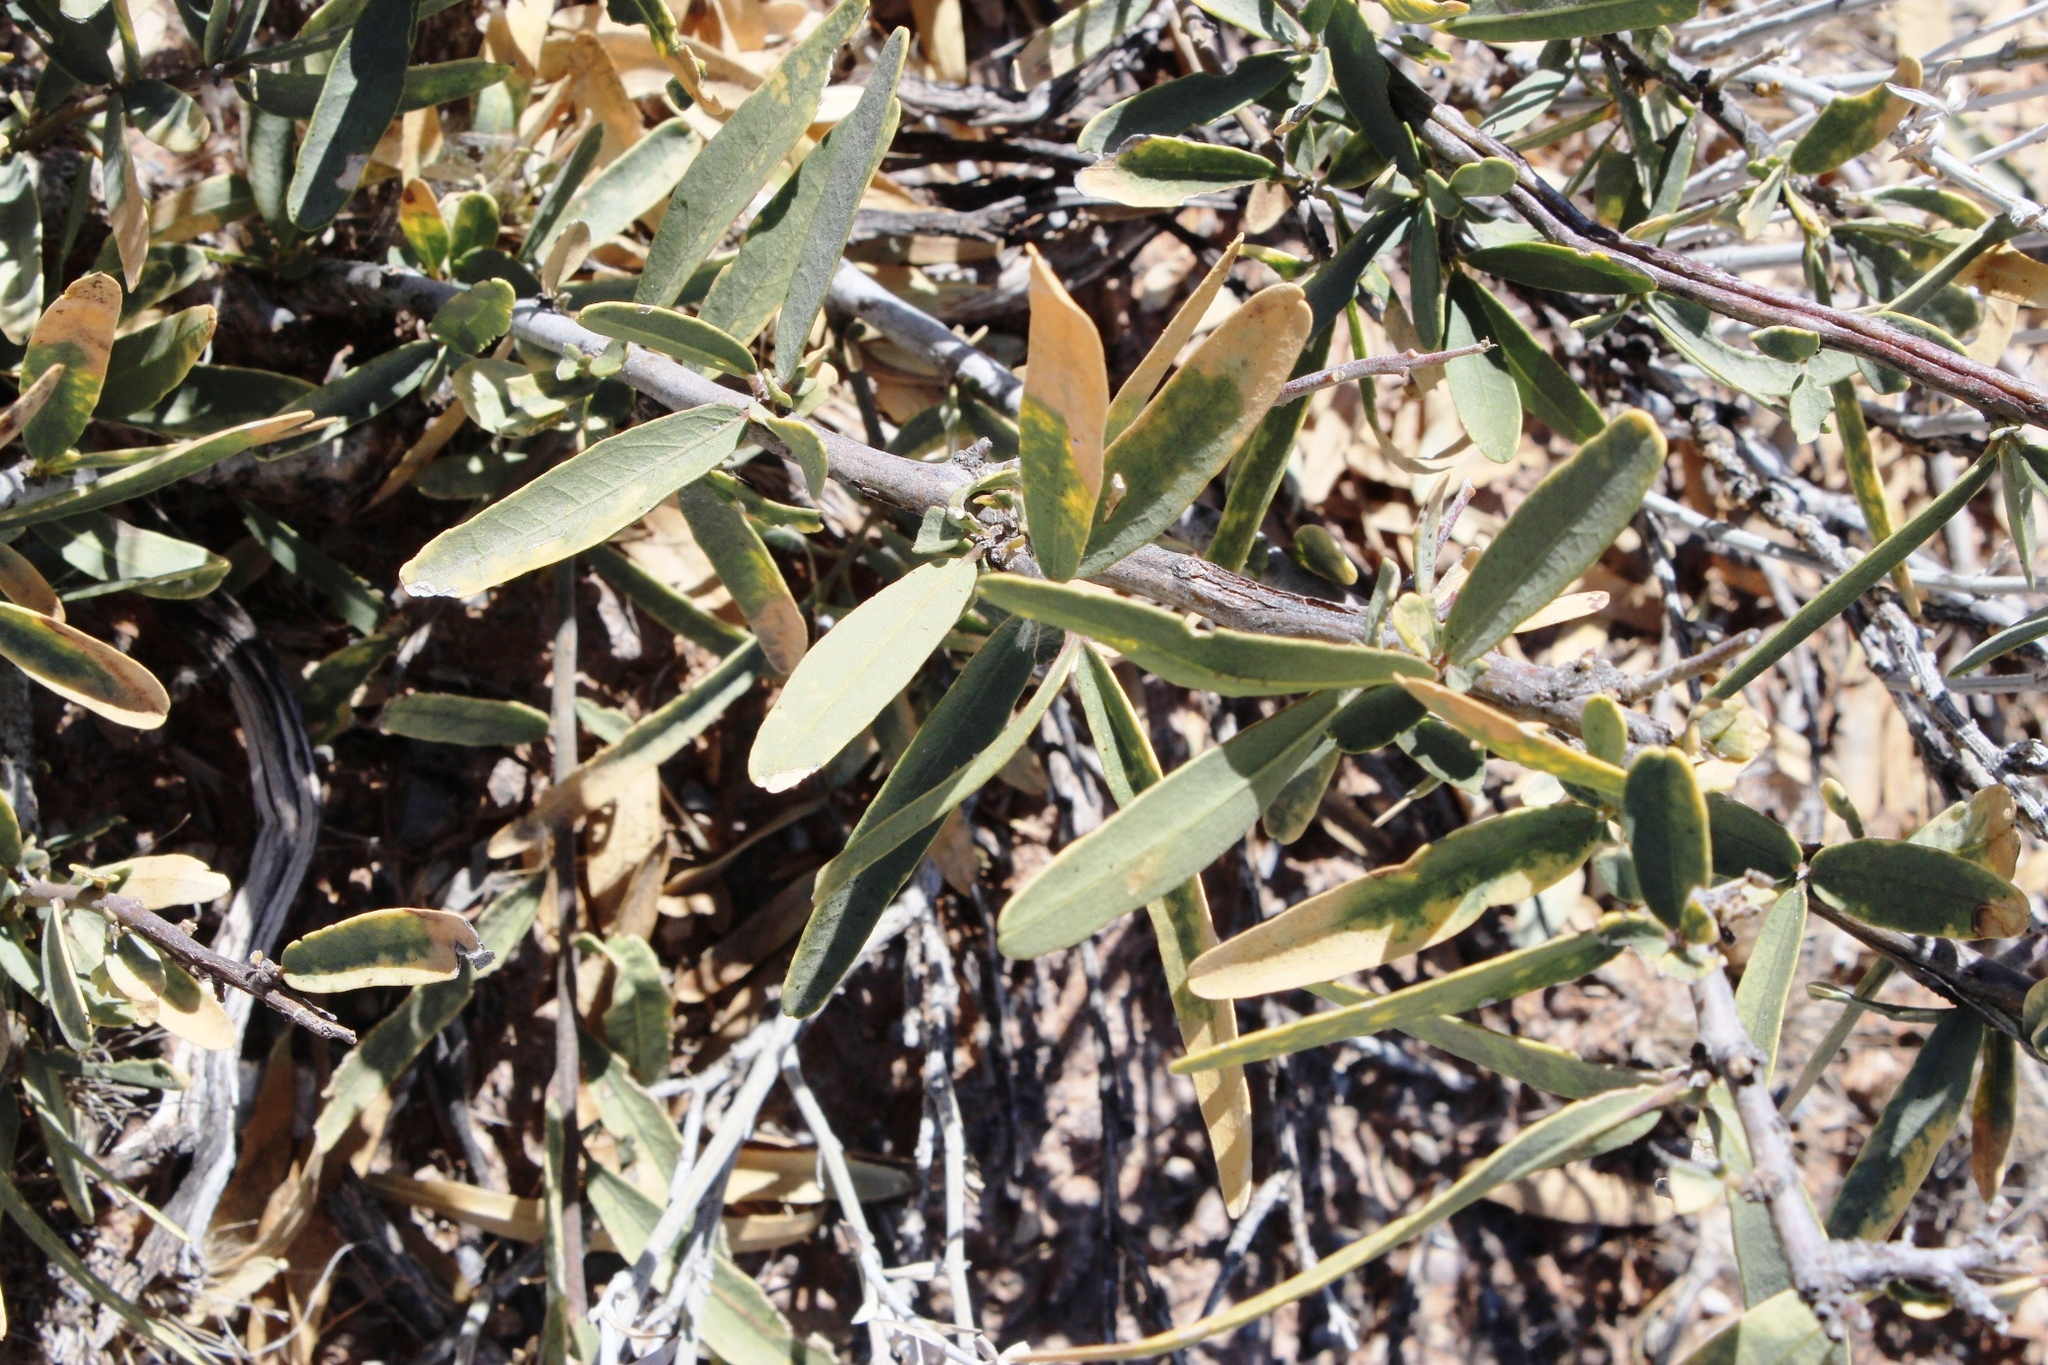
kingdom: Plantae
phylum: Tracheophyta
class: Magnoliopsida
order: Brassicales
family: Capparaceae
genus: Boscia
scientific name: Boscia albitrunca
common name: Caper bush
